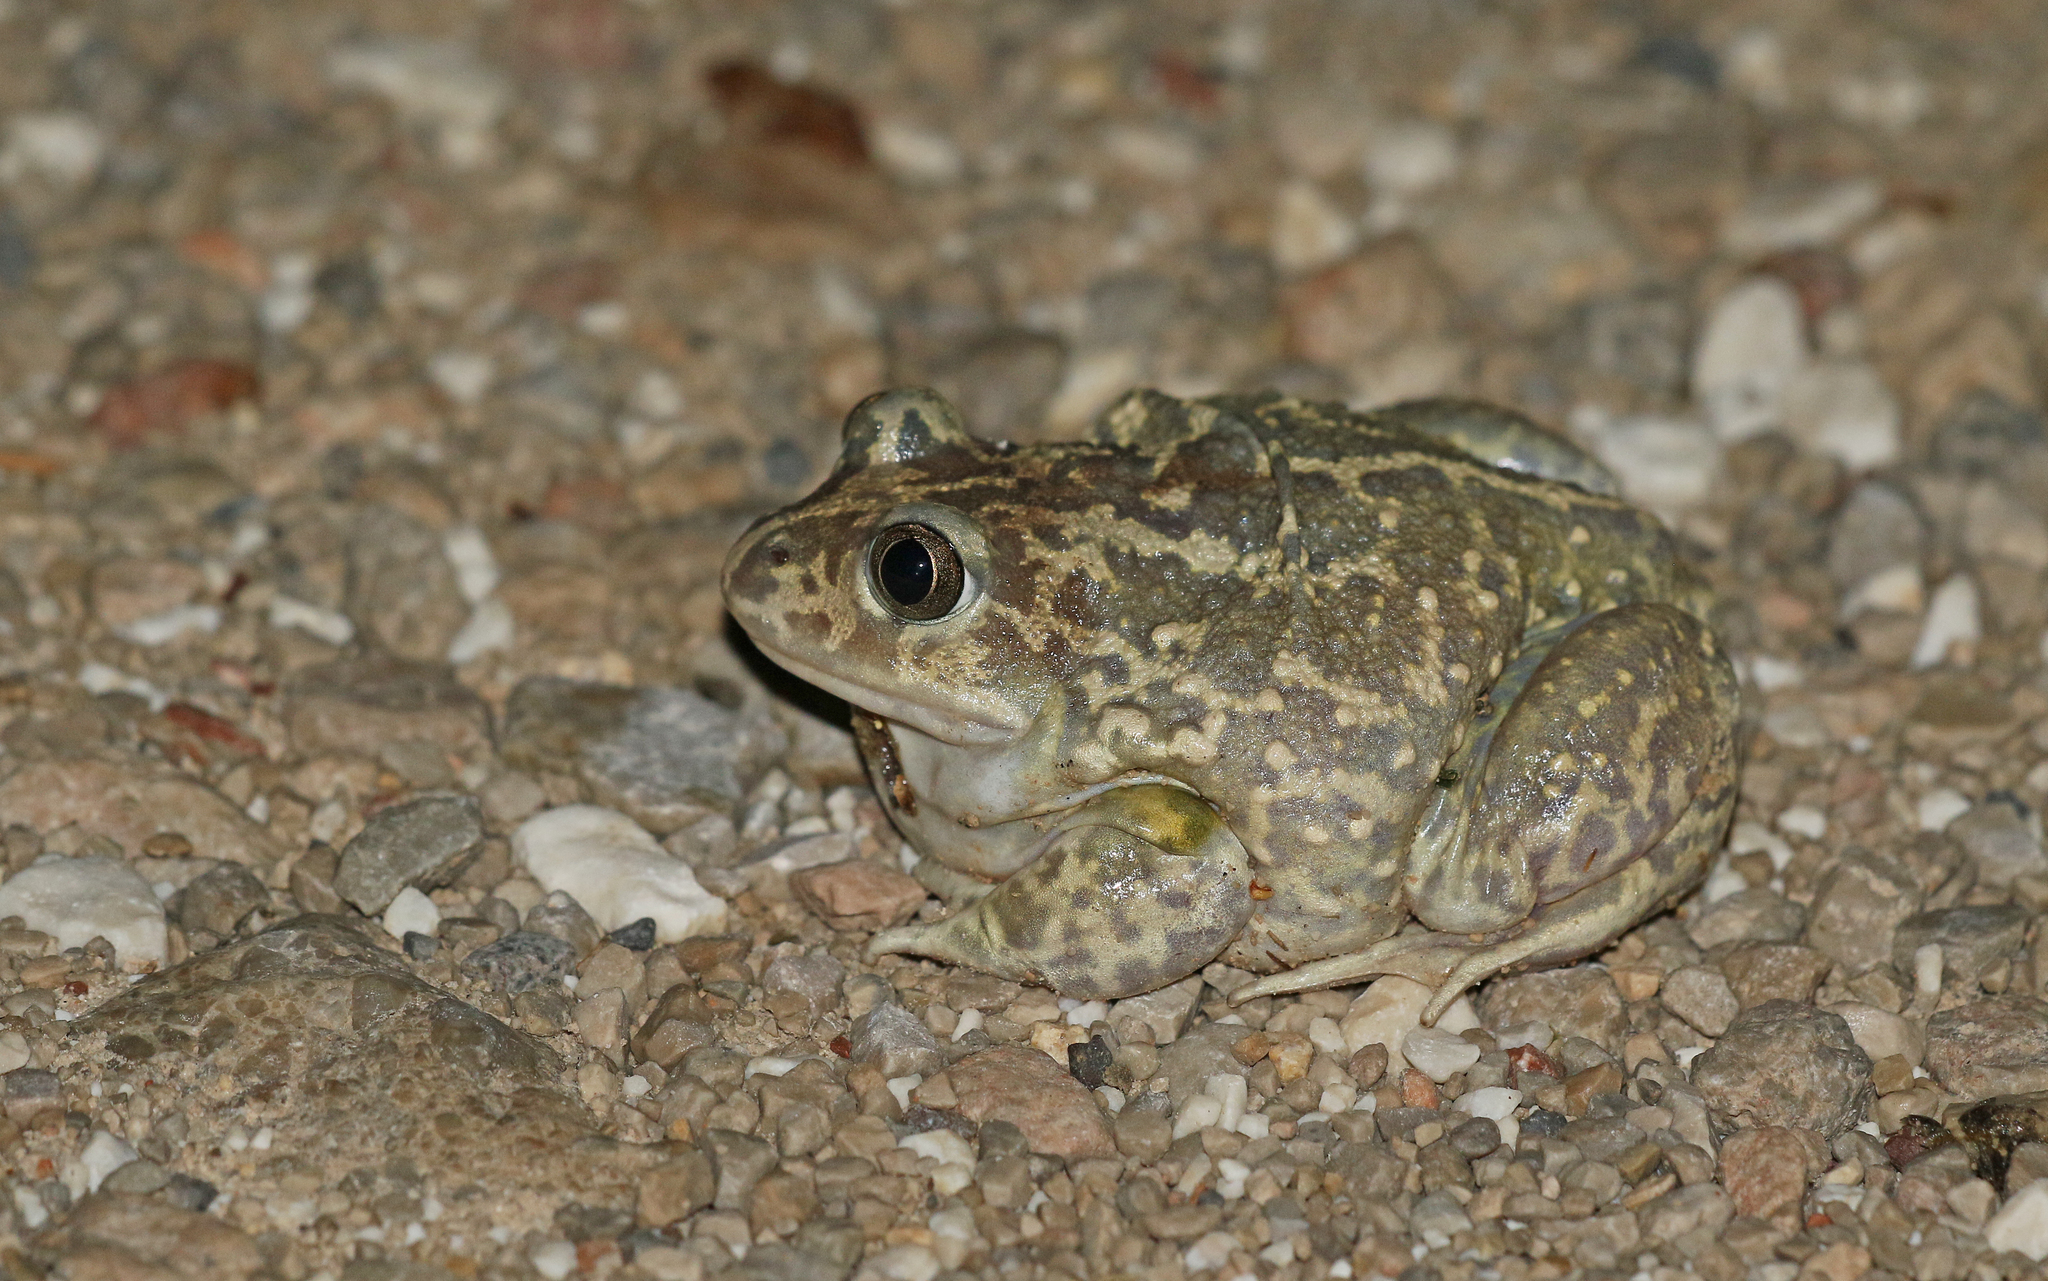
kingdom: Animalia
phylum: Chordata
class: Amphibia
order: Anura
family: Pelobatidae
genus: Pelobates
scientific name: Pelobates cultripes
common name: Western spadefoot
